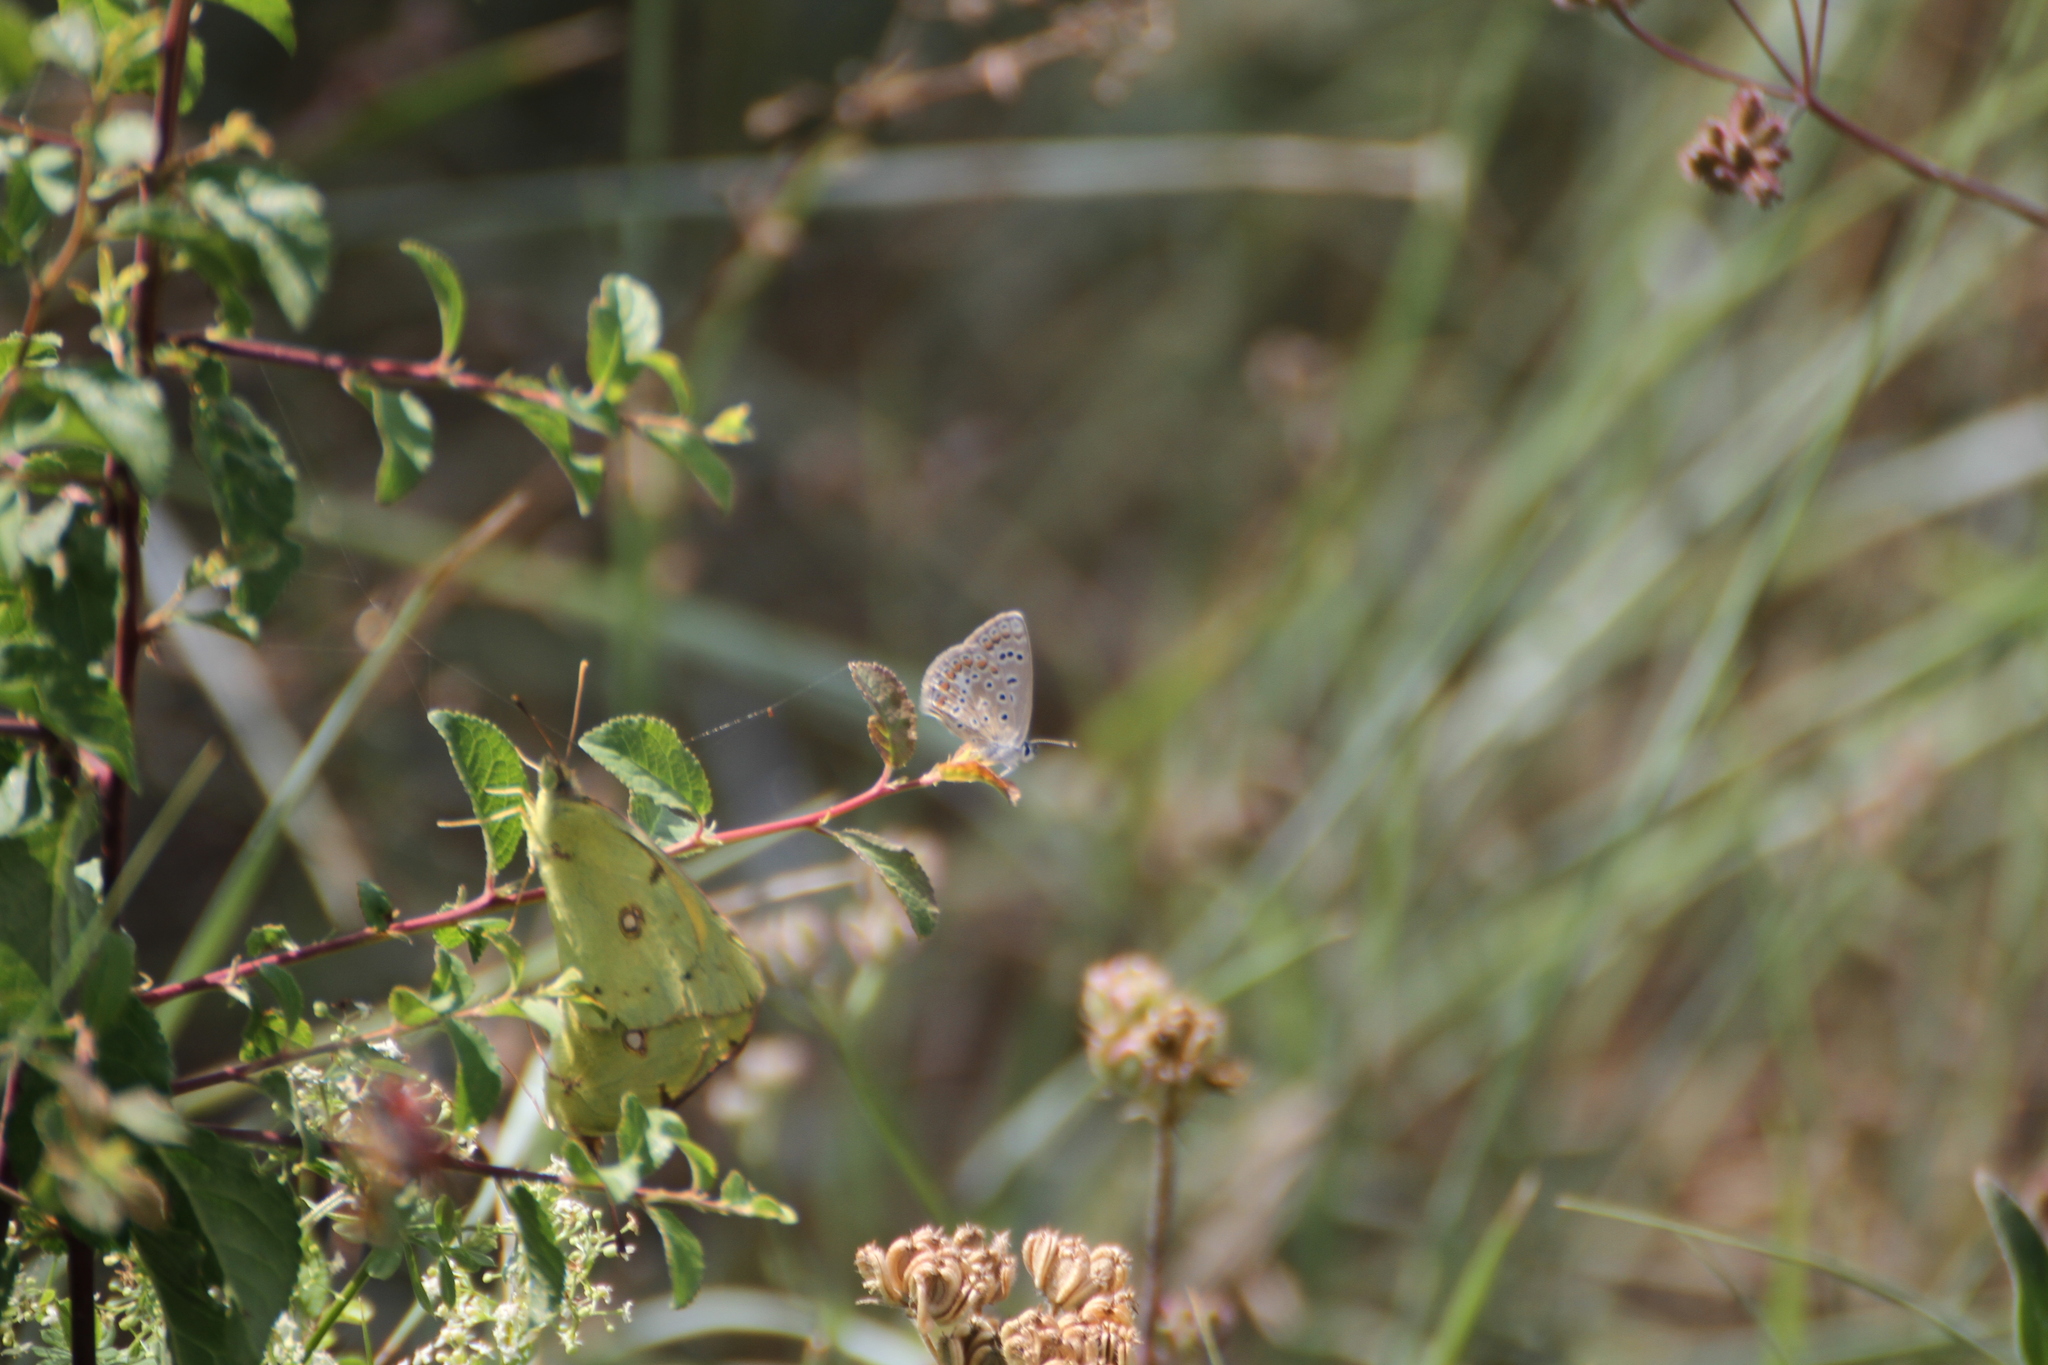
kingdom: Animalia
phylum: Arthropoda
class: Insecta
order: Lepidoptera
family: Lycaenidae
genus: Polyommatus
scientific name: Polyommatus icarus
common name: Common blue
